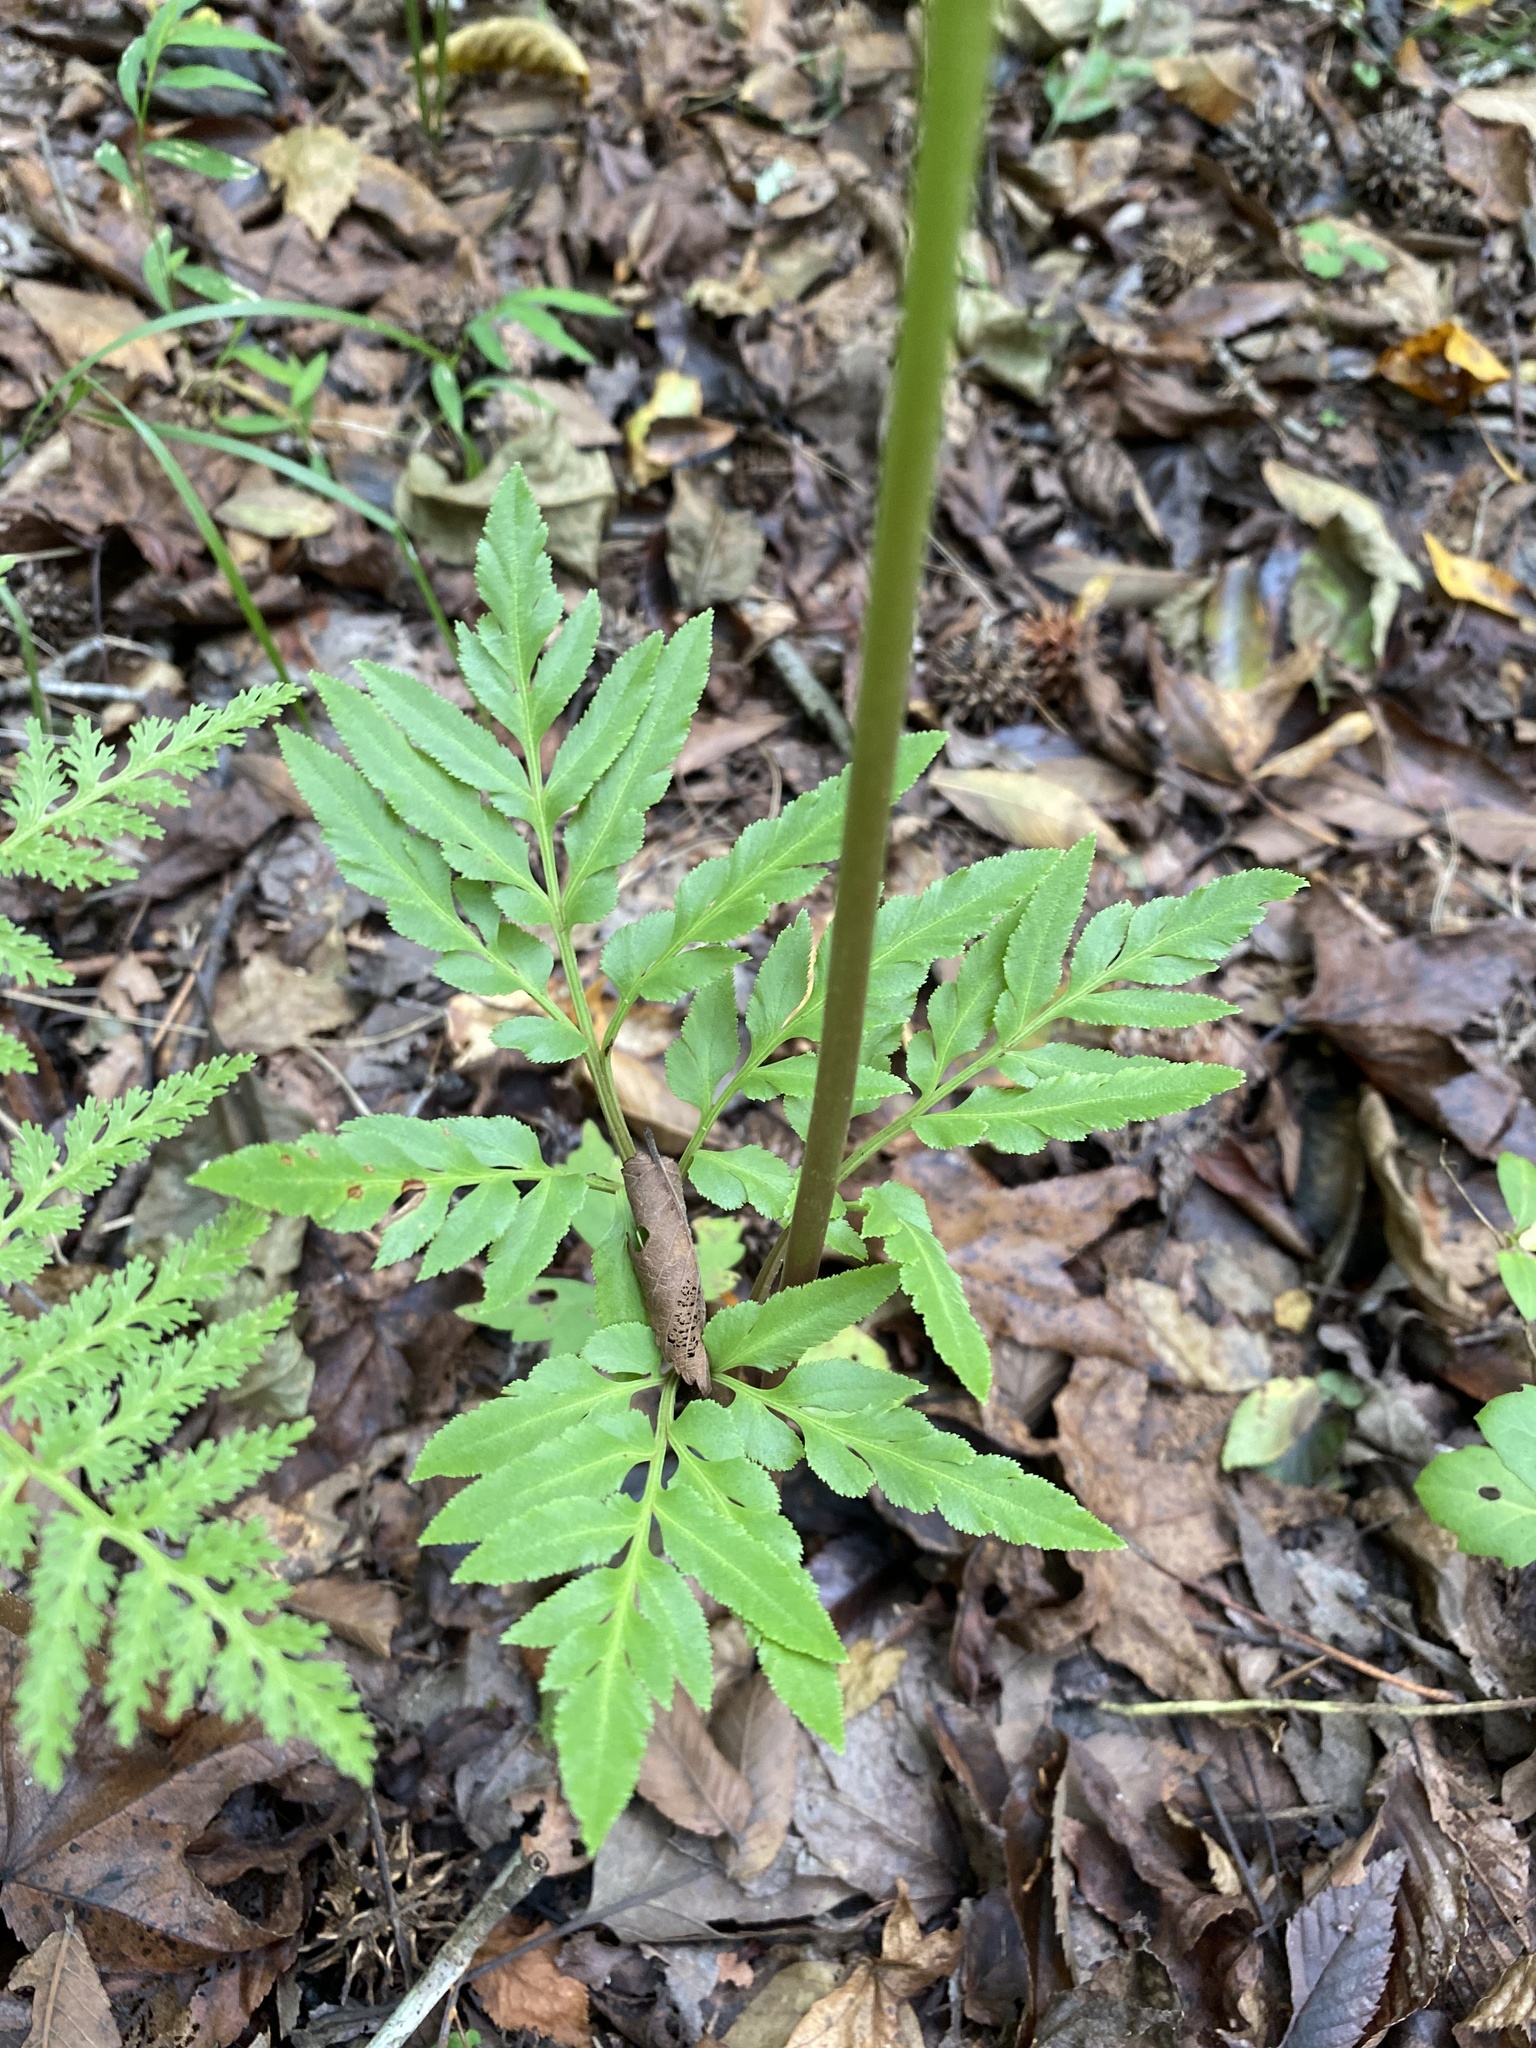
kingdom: Plantae
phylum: Tracheophyta
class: Polypodiopsida
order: Ophioglossales
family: Ophioglossaceae
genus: Sceptridium
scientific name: Sceptridium dissectum
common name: Cut-leaved grapefern
